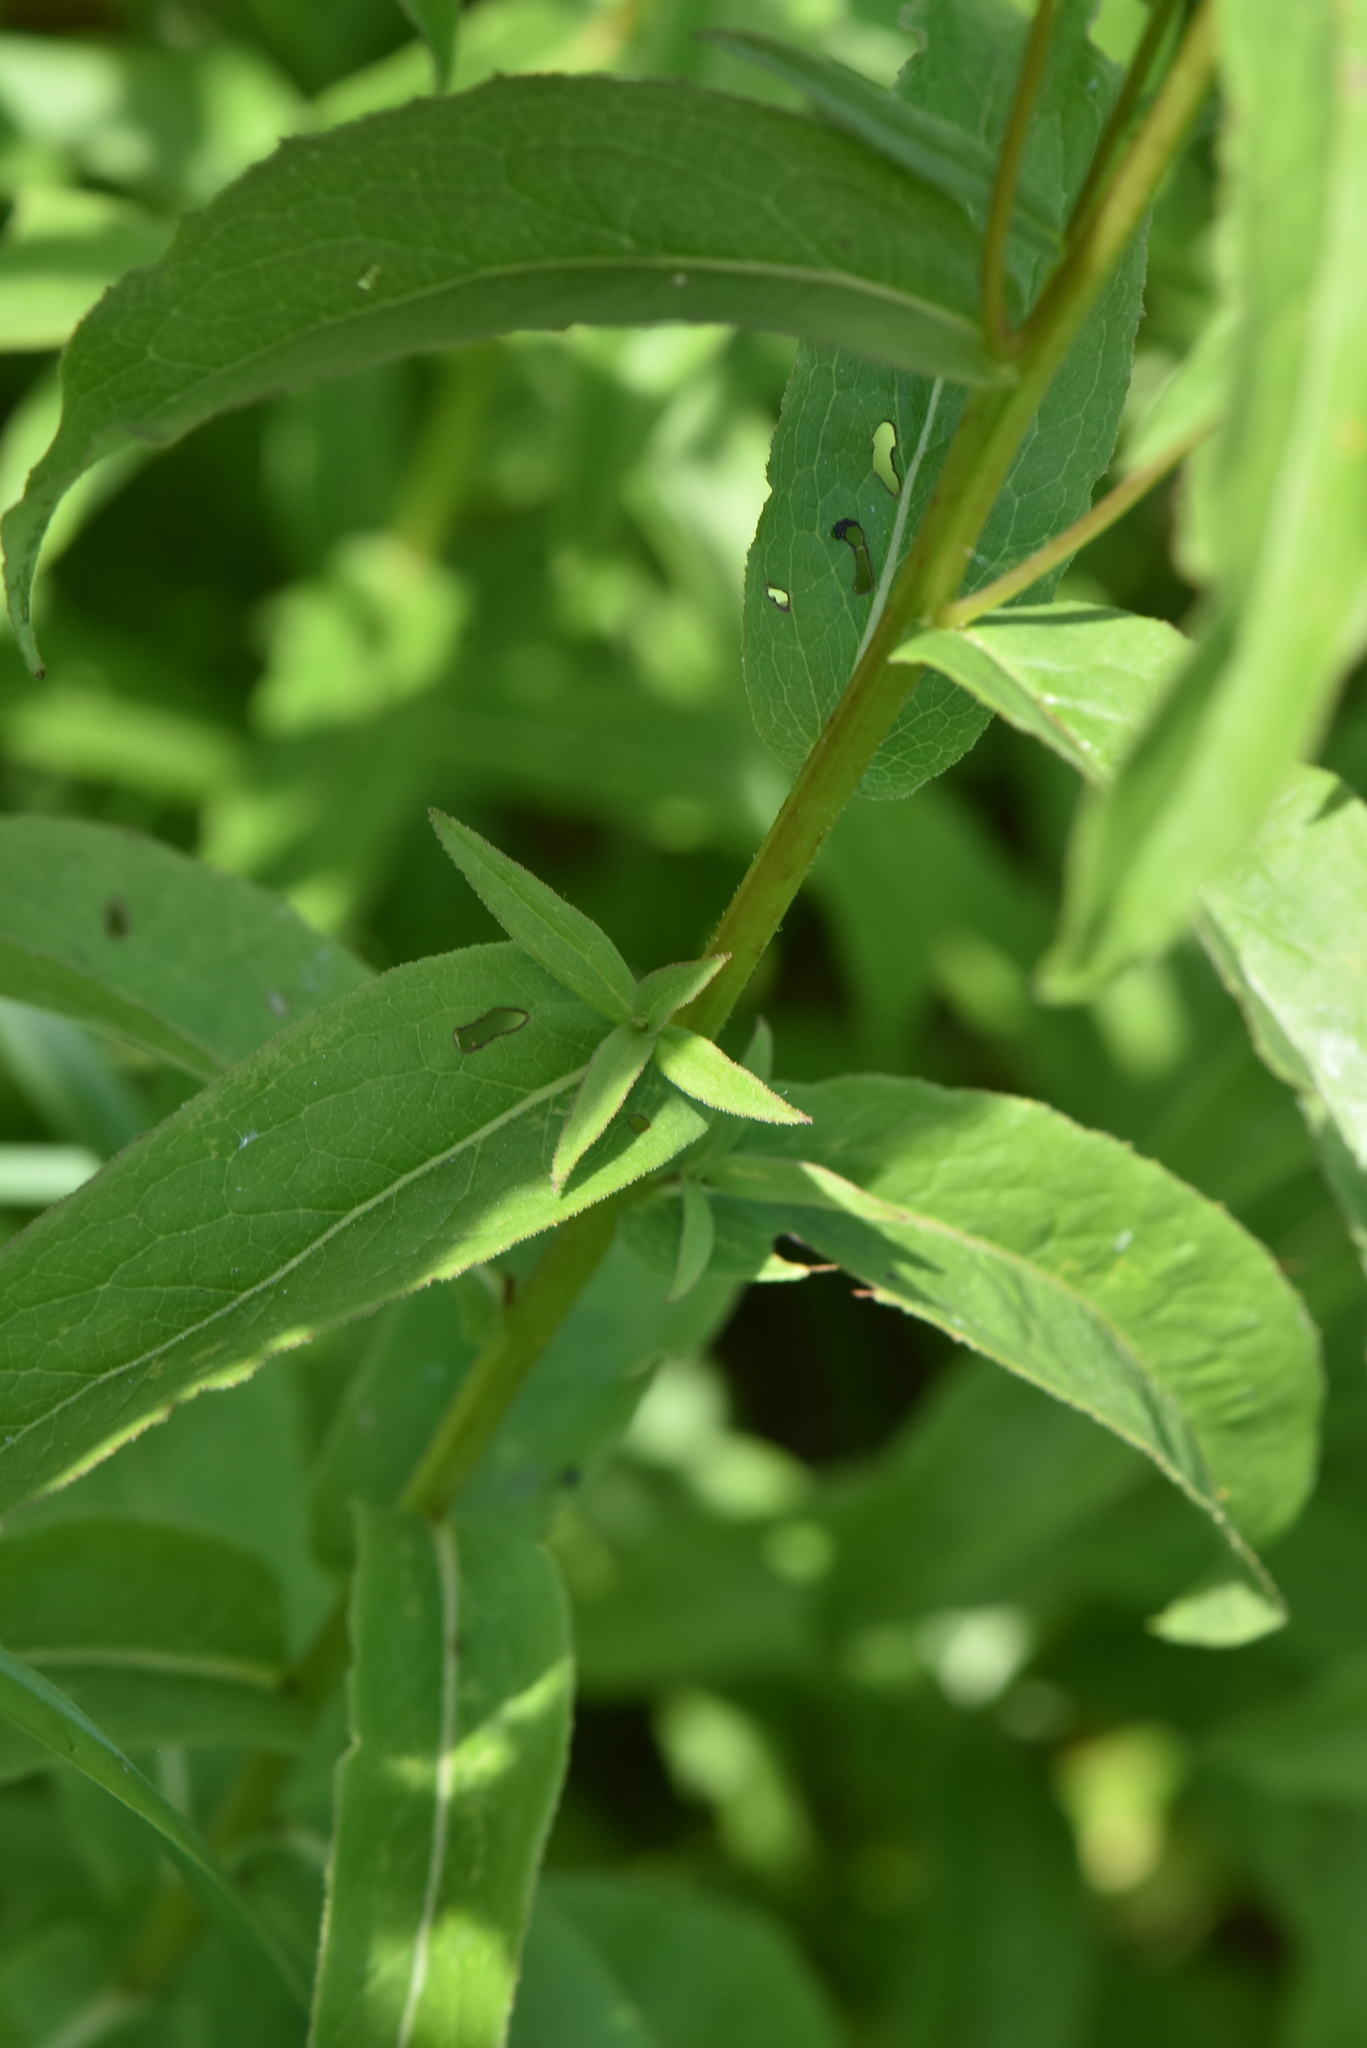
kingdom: Plantae
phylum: Tracheophyta
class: Magnoliopsida
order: Asterales
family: Asteraceae
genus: Pentanema
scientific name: Pentanema salicinum
